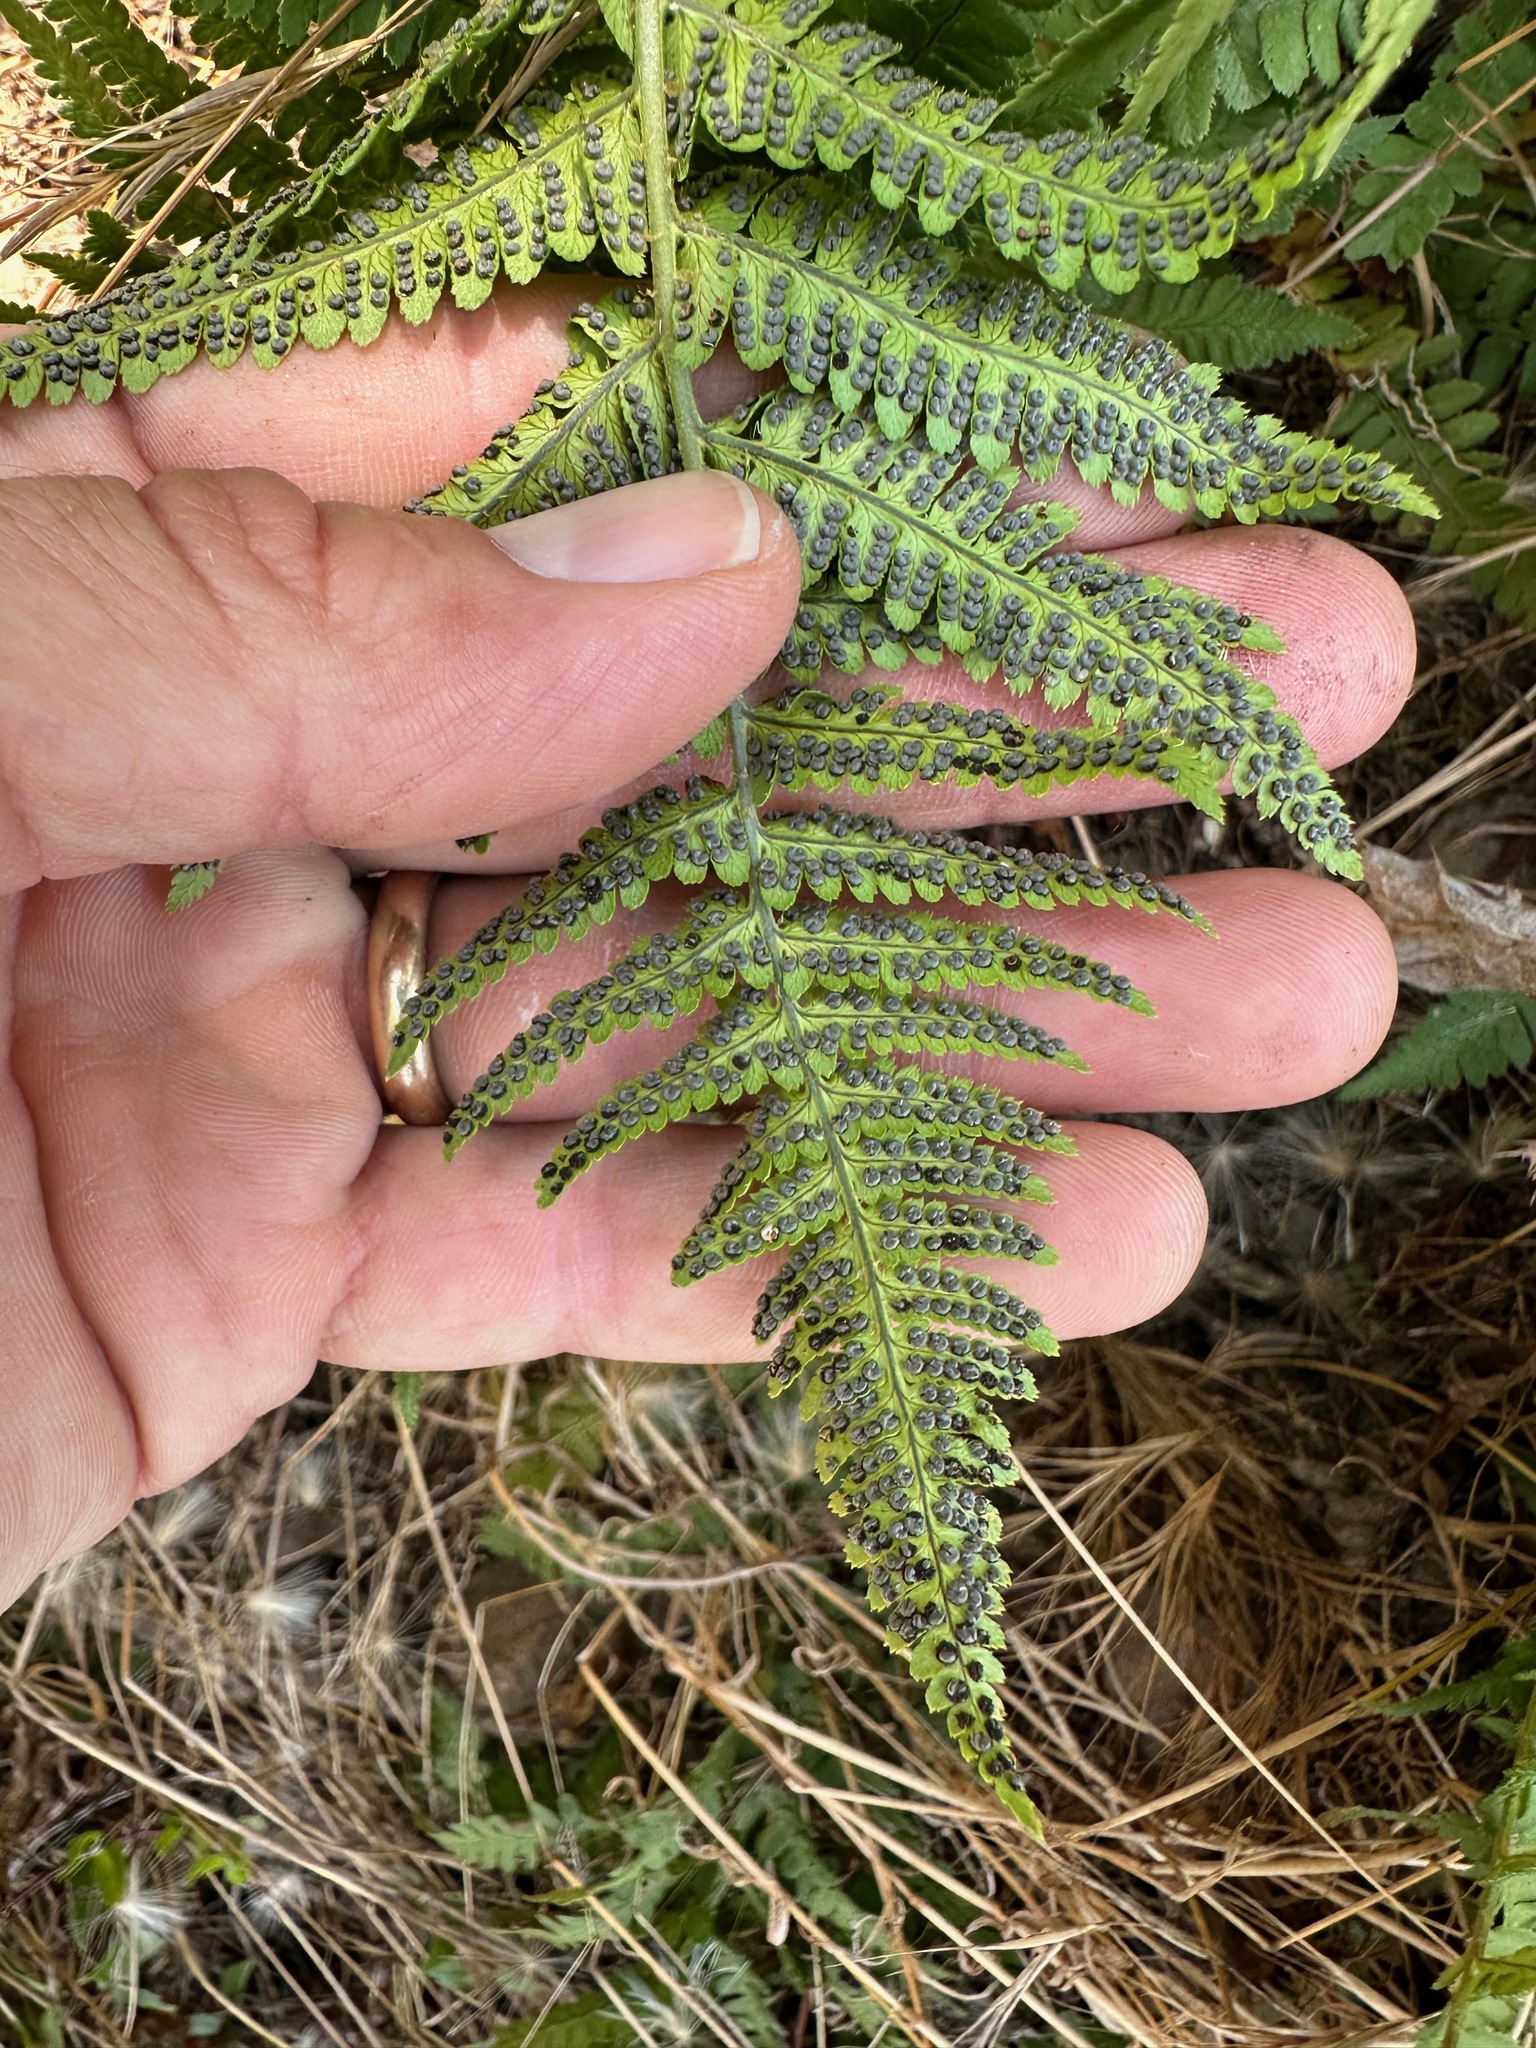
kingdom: Plantae
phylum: Tracheophyta
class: Polypodiopsida
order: Polypodiales
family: Dryopteridaceae
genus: Dryopteris
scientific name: Dryopteris arguta
